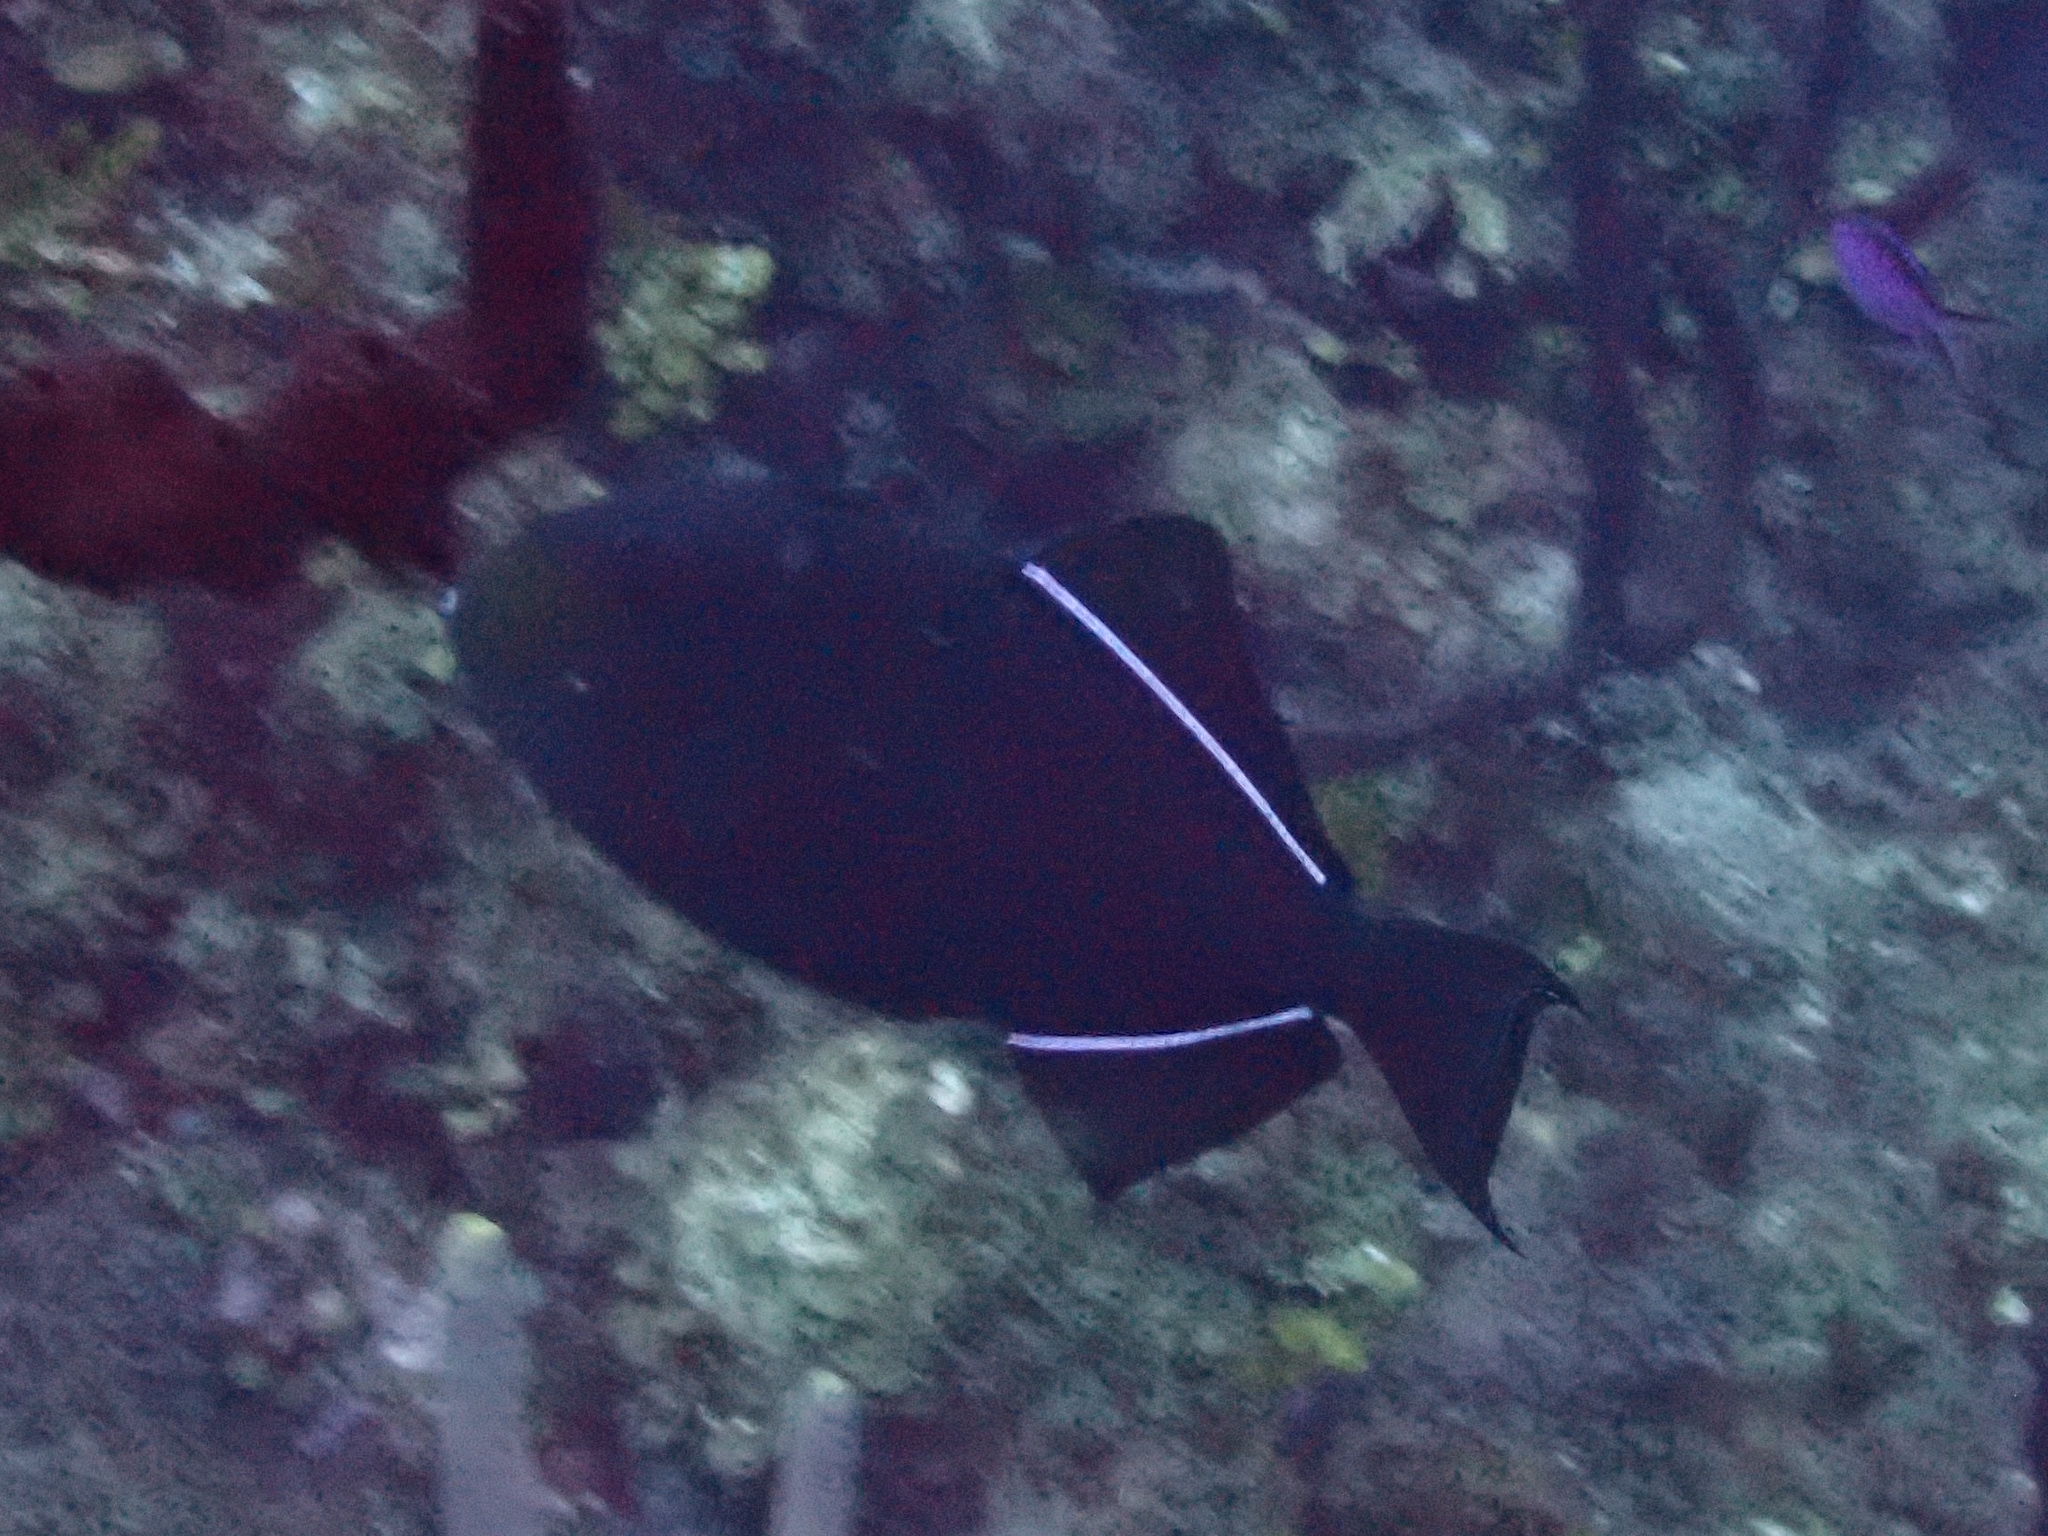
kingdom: Animalia
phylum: Chordata
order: Tetraodontiformes
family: Balistidae
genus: Melichthys
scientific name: Melichthys niger
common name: Black durgon
